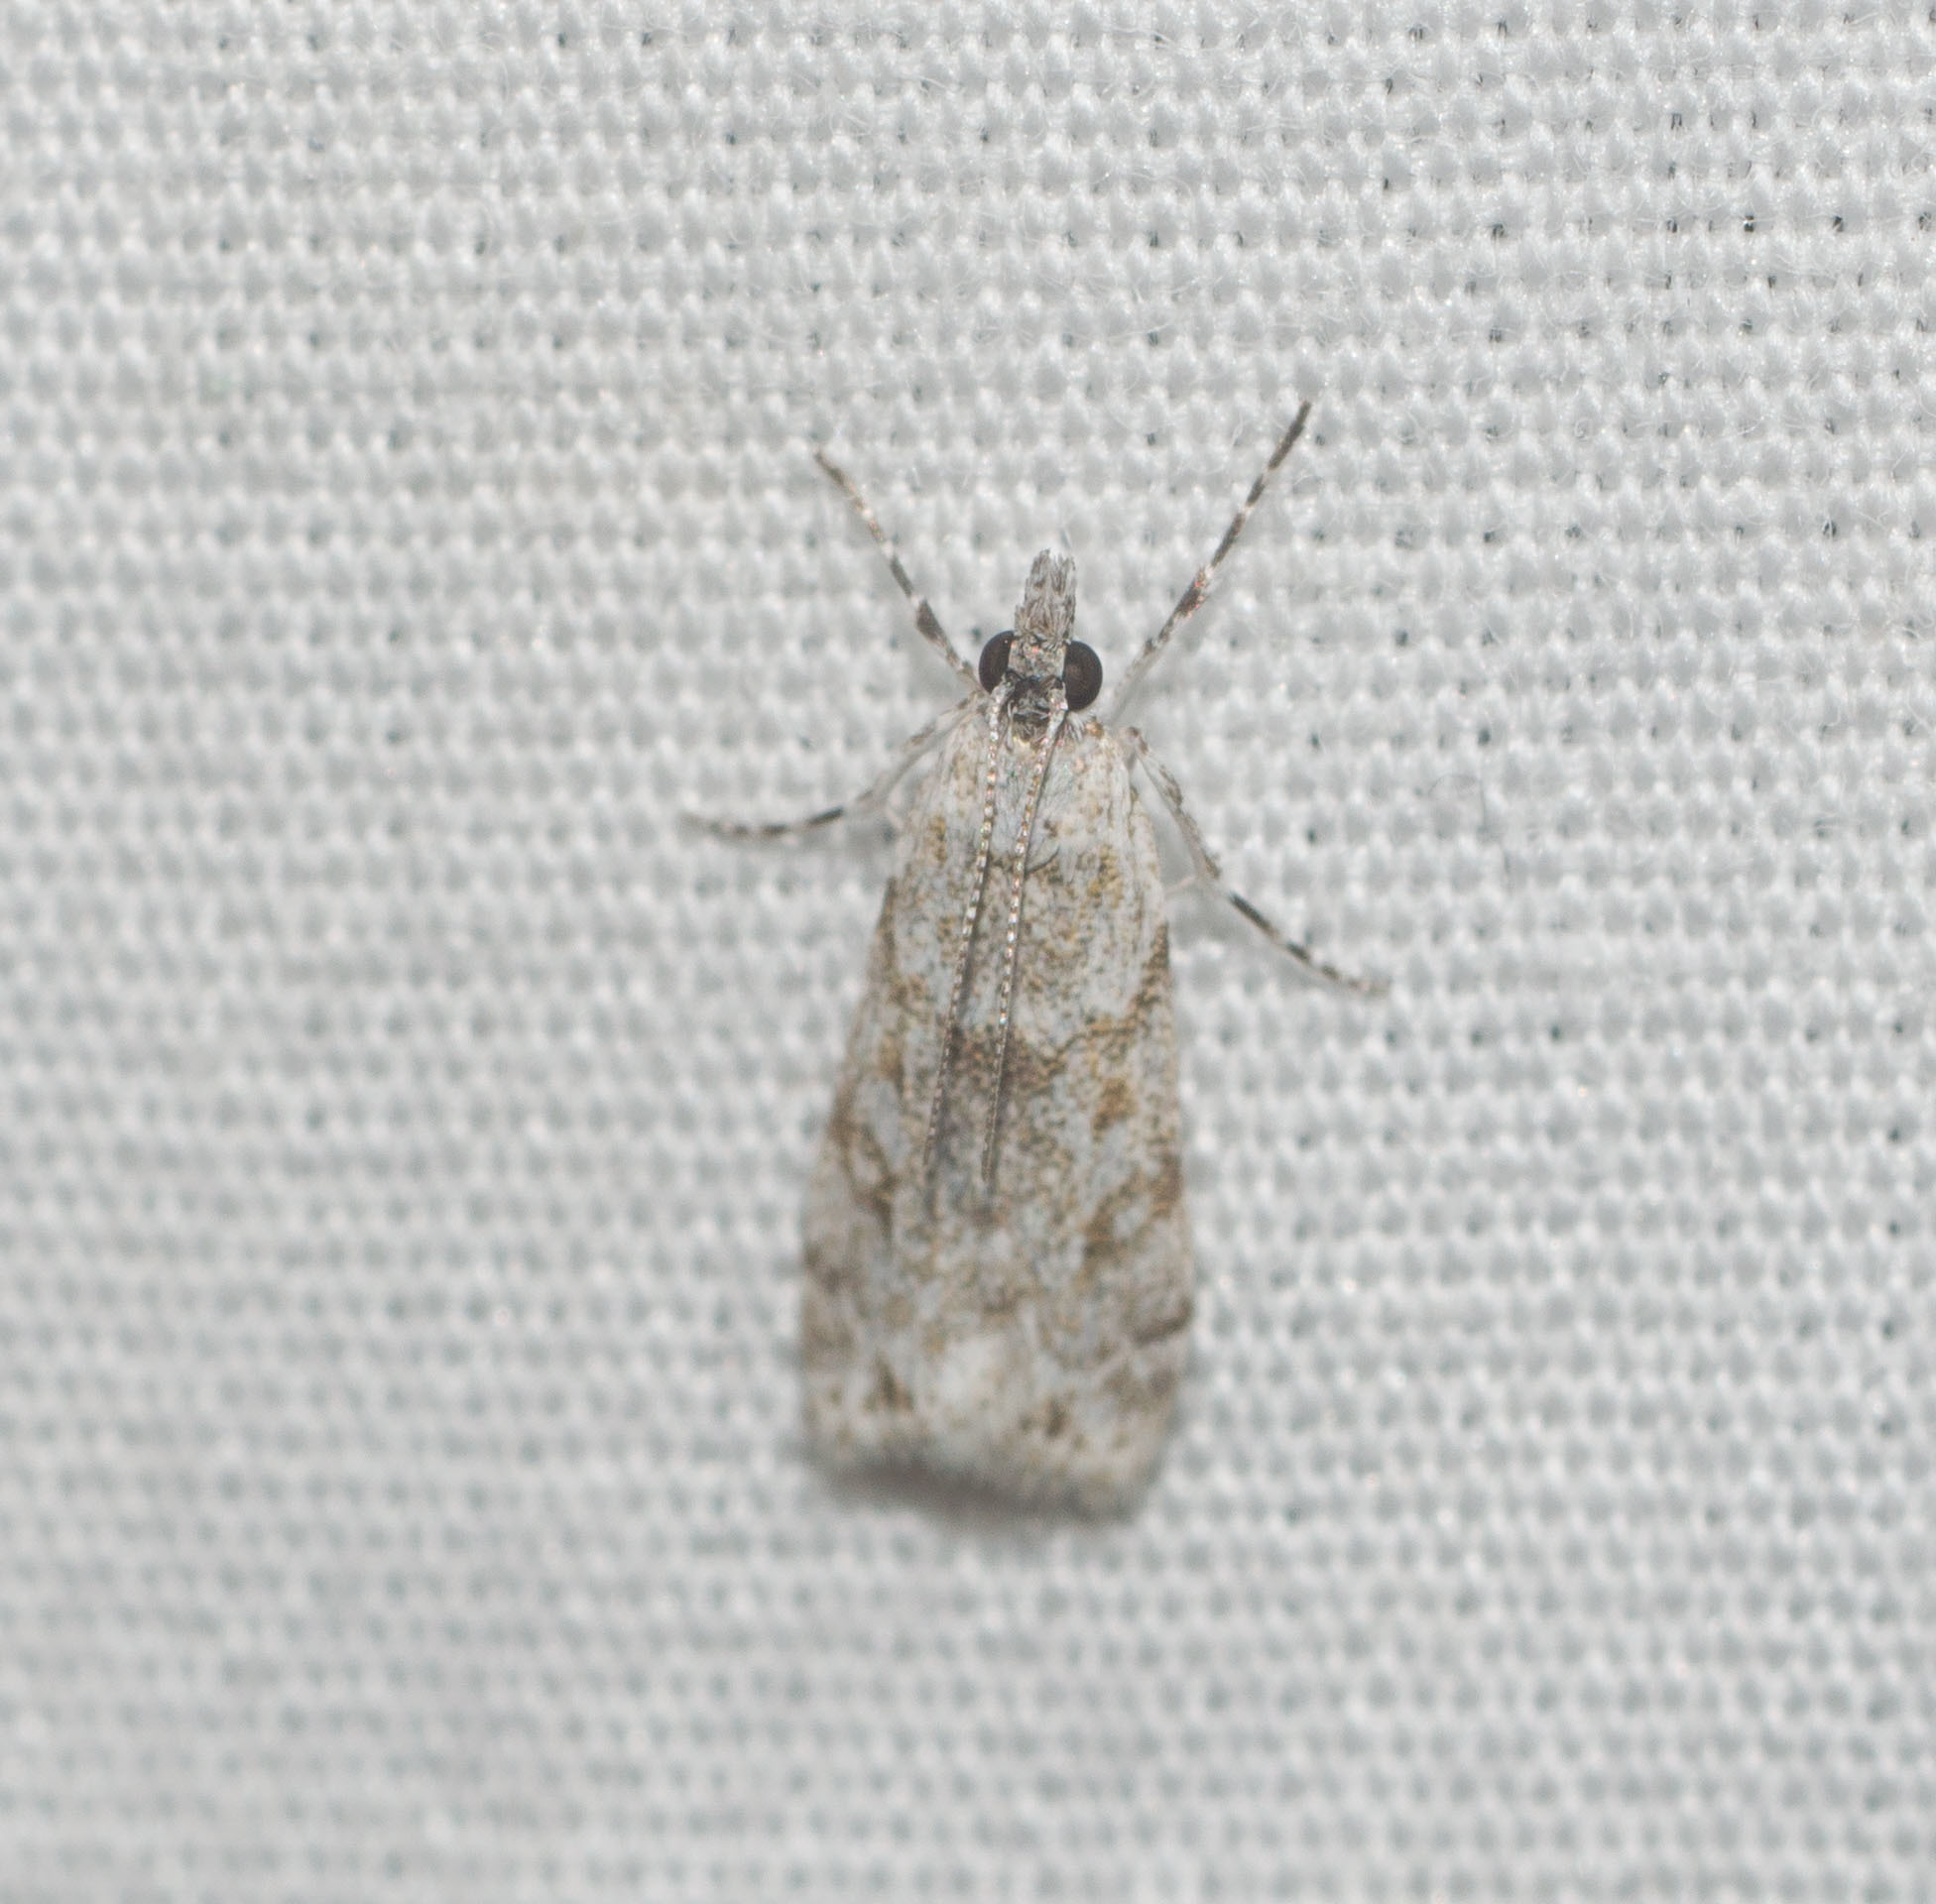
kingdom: Animalia
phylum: Arthropoda
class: Insecta
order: Lepidoptera
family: Crambidae
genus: Eudonia
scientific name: Eudonia geraea
